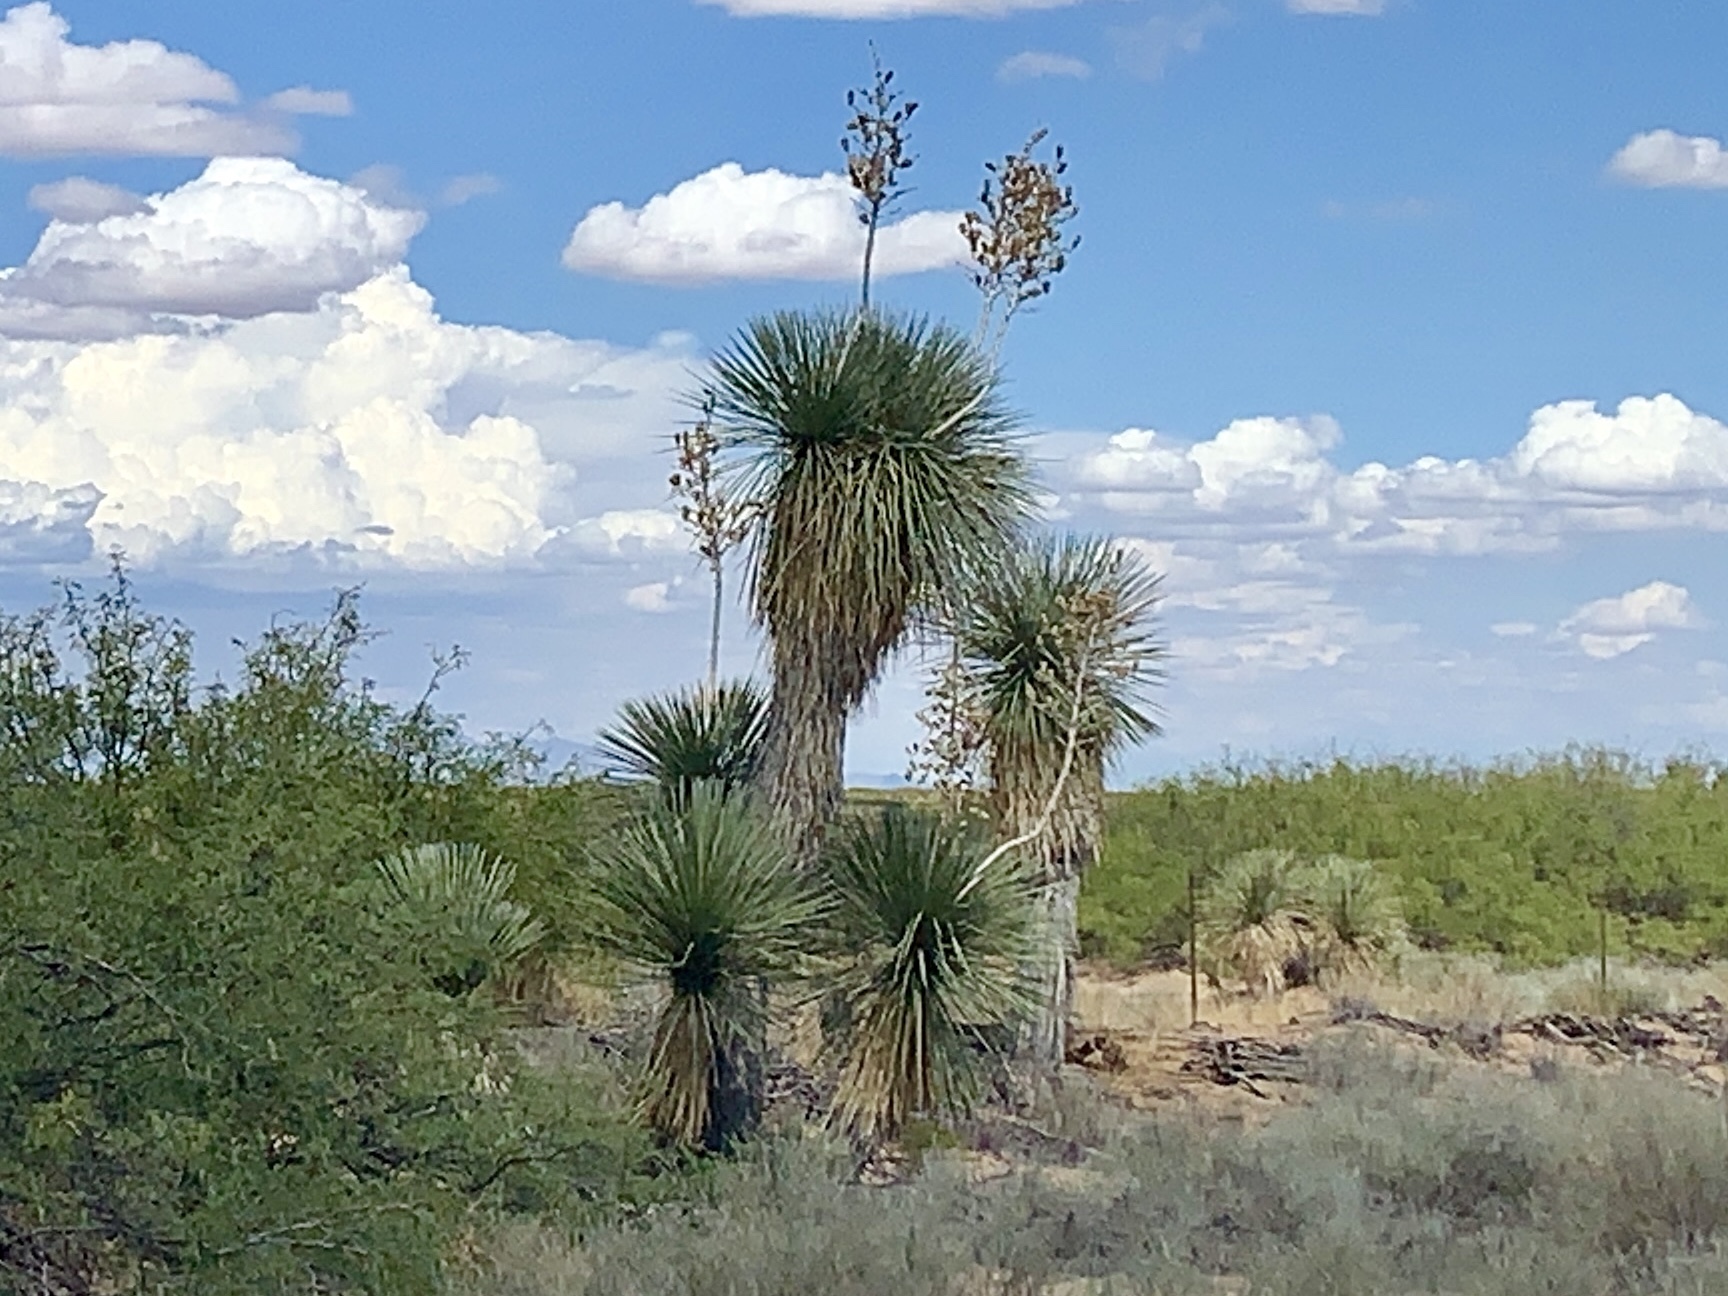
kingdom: Plantae
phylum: Tracheophyta
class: Liliopsida
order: Asparagales
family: Asparagaceae
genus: Yucca
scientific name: Yucca elata
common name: Palmella
